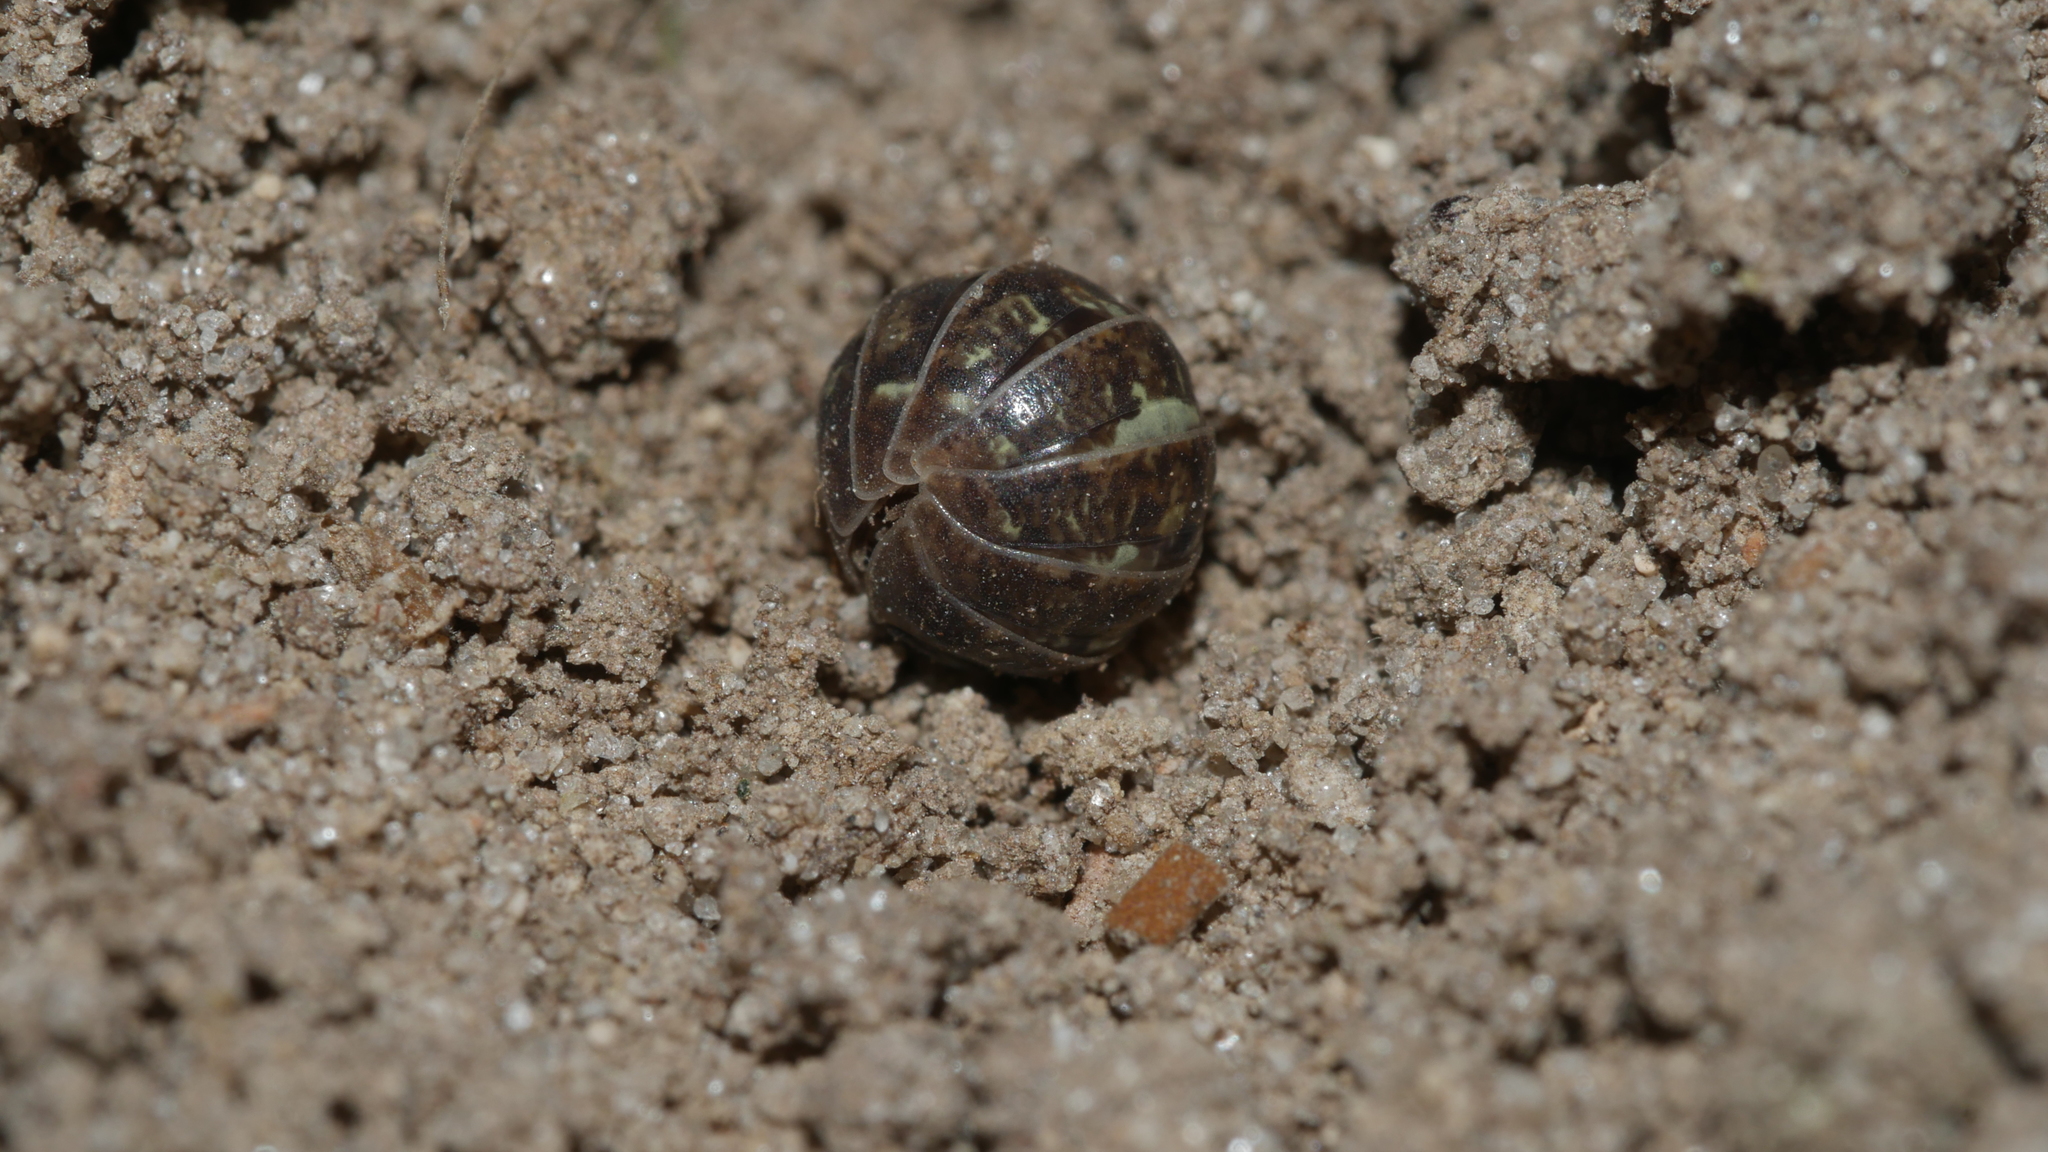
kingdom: Animalia
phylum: Arthropoda
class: Malacostraca
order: Isopoda
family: Armadillidiidae
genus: Armadillidium
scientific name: Armadillidium vulgare
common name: Common pill woodlouse
